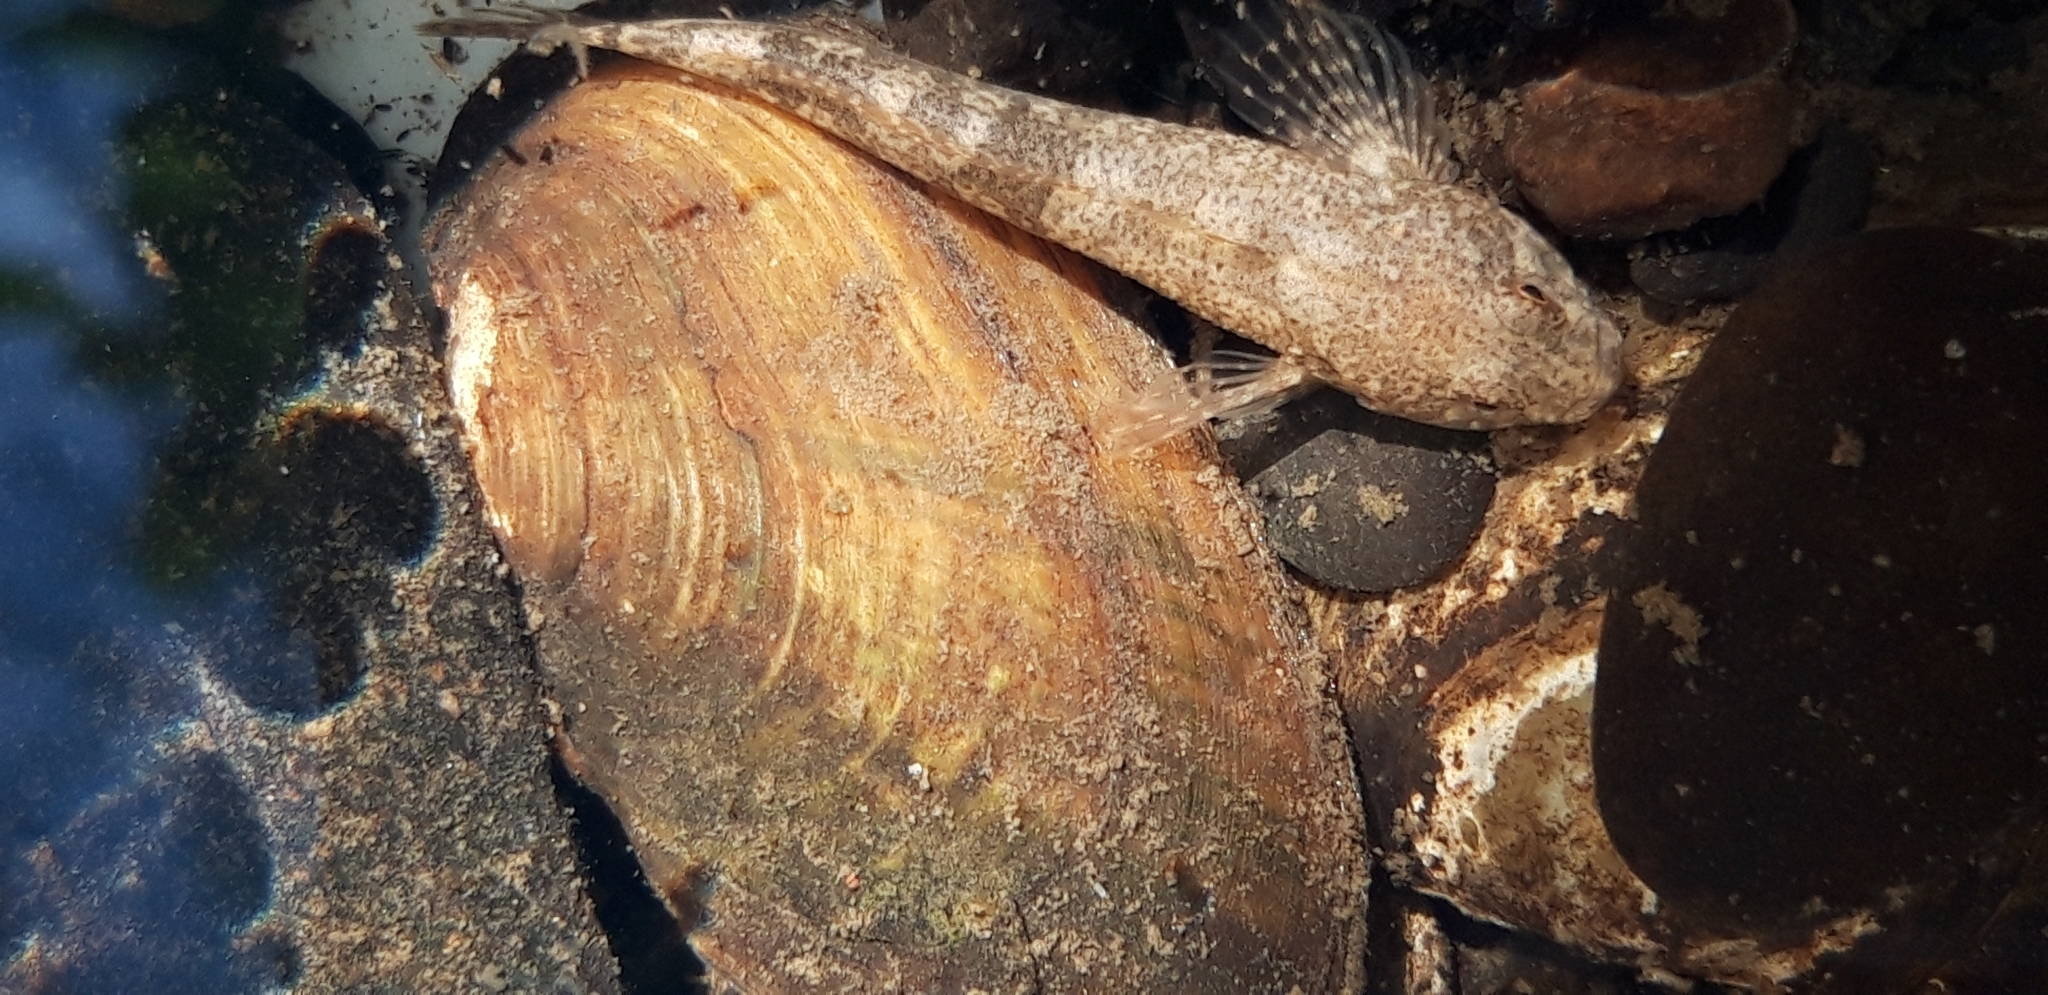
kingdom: Animalia
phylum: Chordata
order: Scorpaeniformes
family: Cottidae
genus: Cottus
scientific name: Cottus
